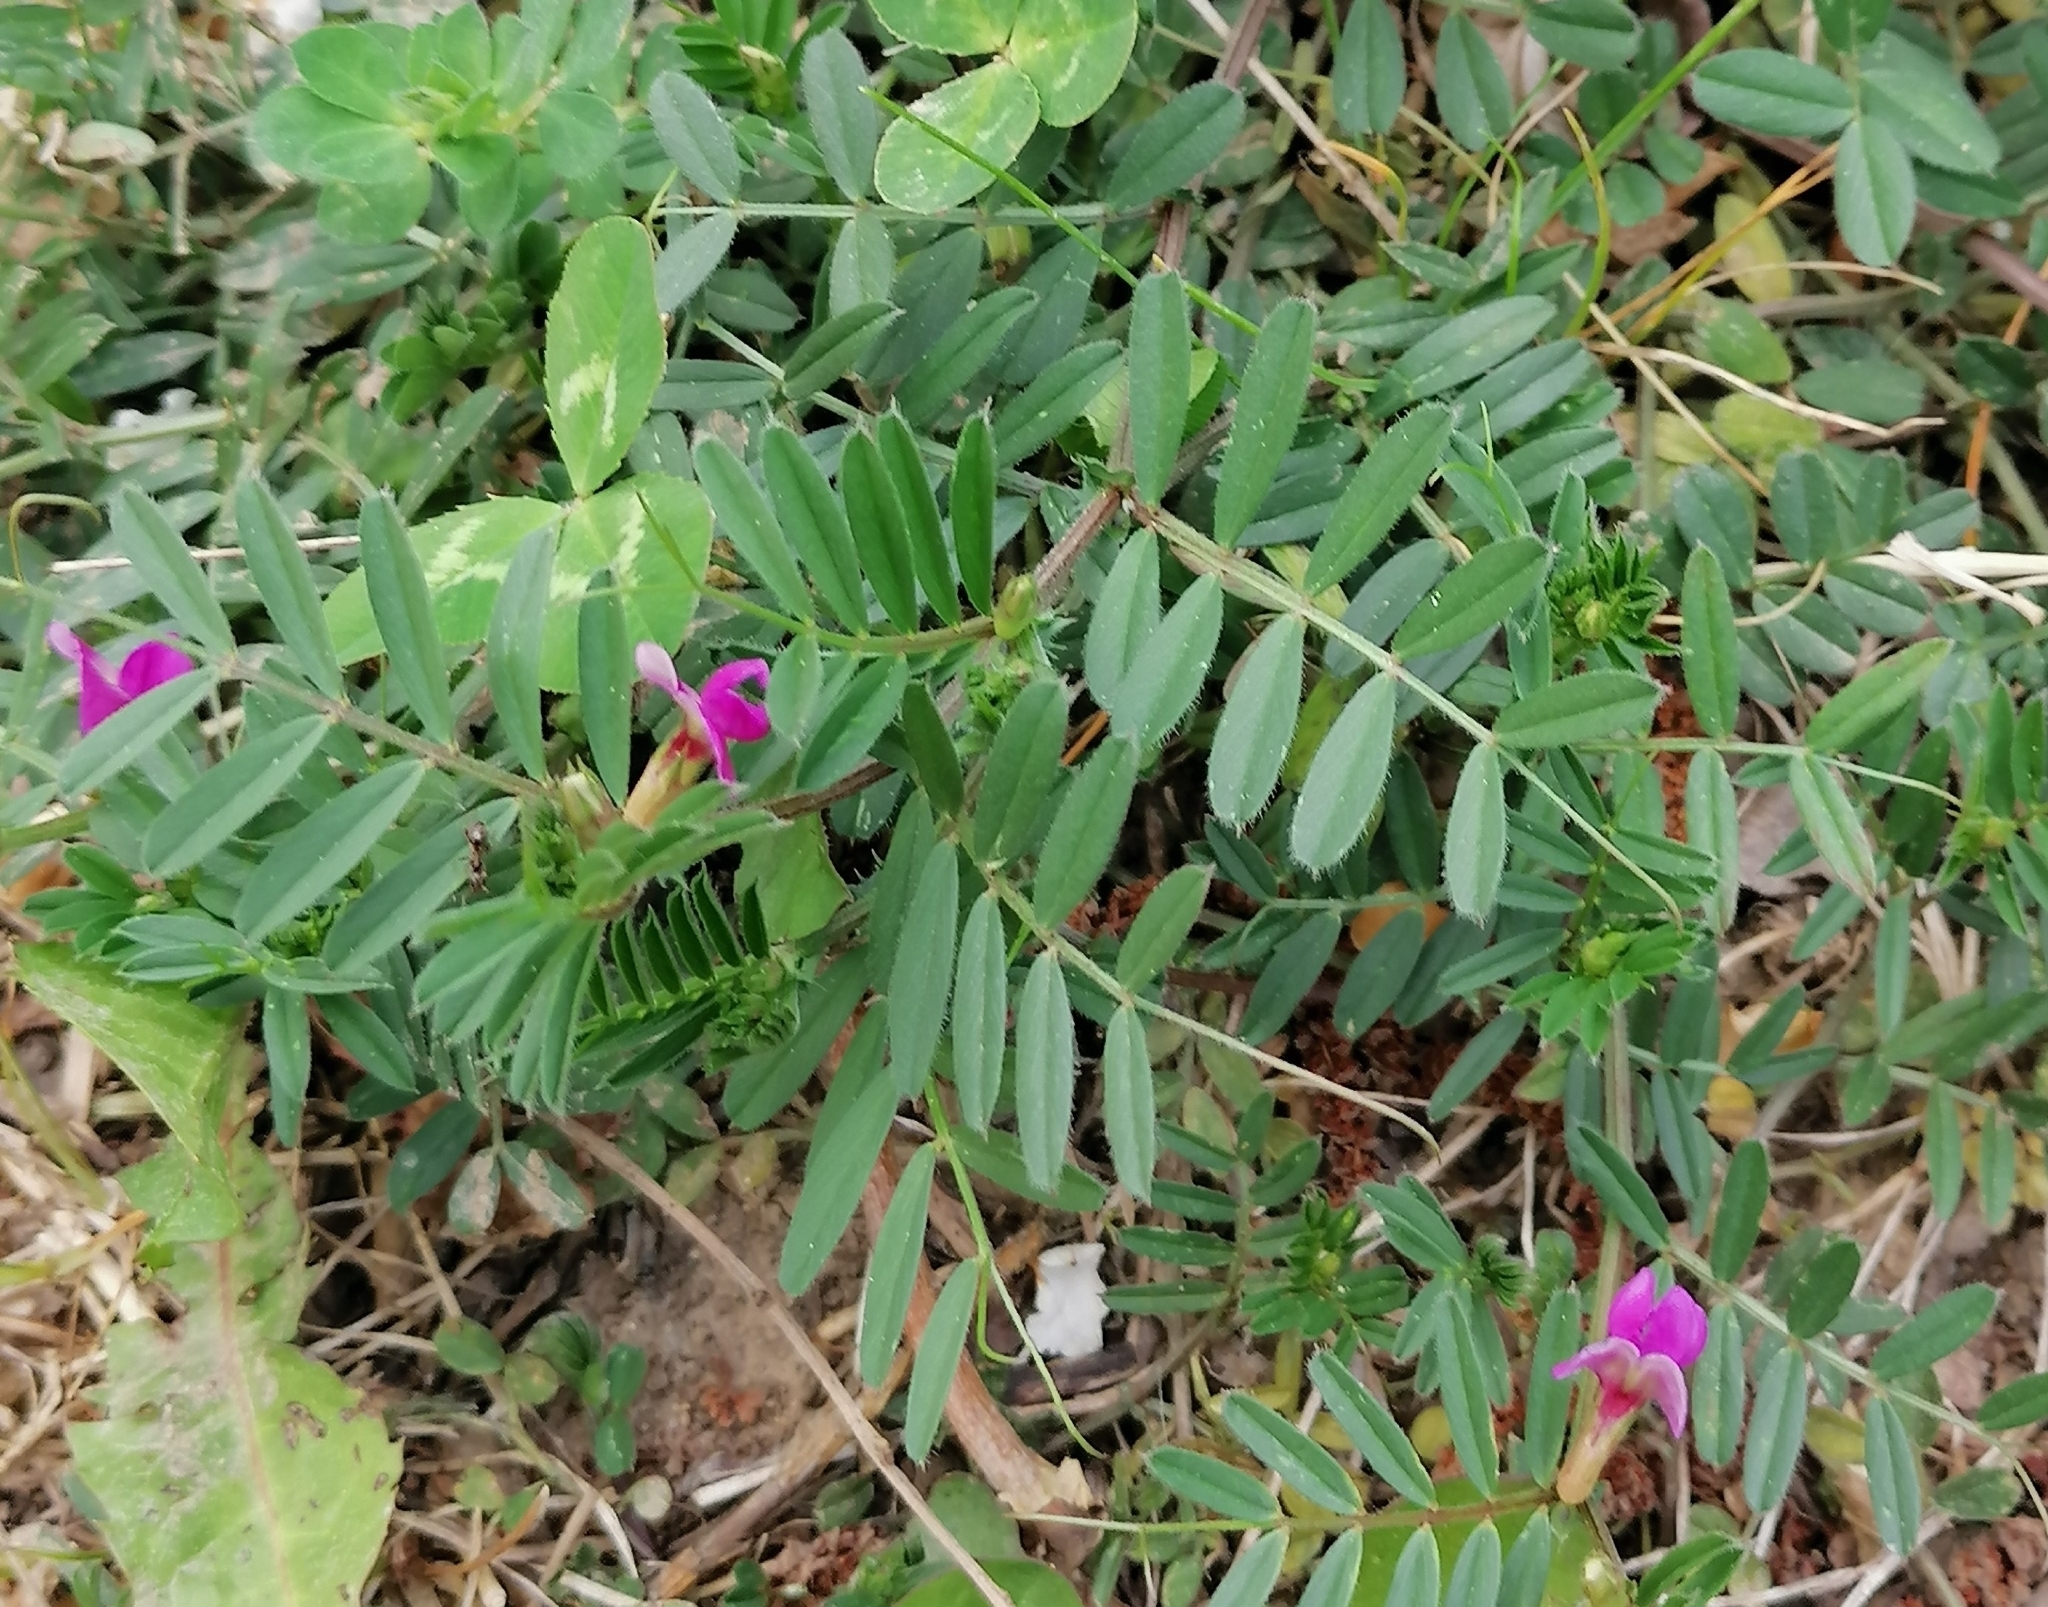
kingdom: Plantae
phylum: Tracheophyta
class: Magnoliopsida
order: Fabales
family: Fabaceae
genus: Vicia
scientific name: Vicia sativa
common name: Garden vetch
